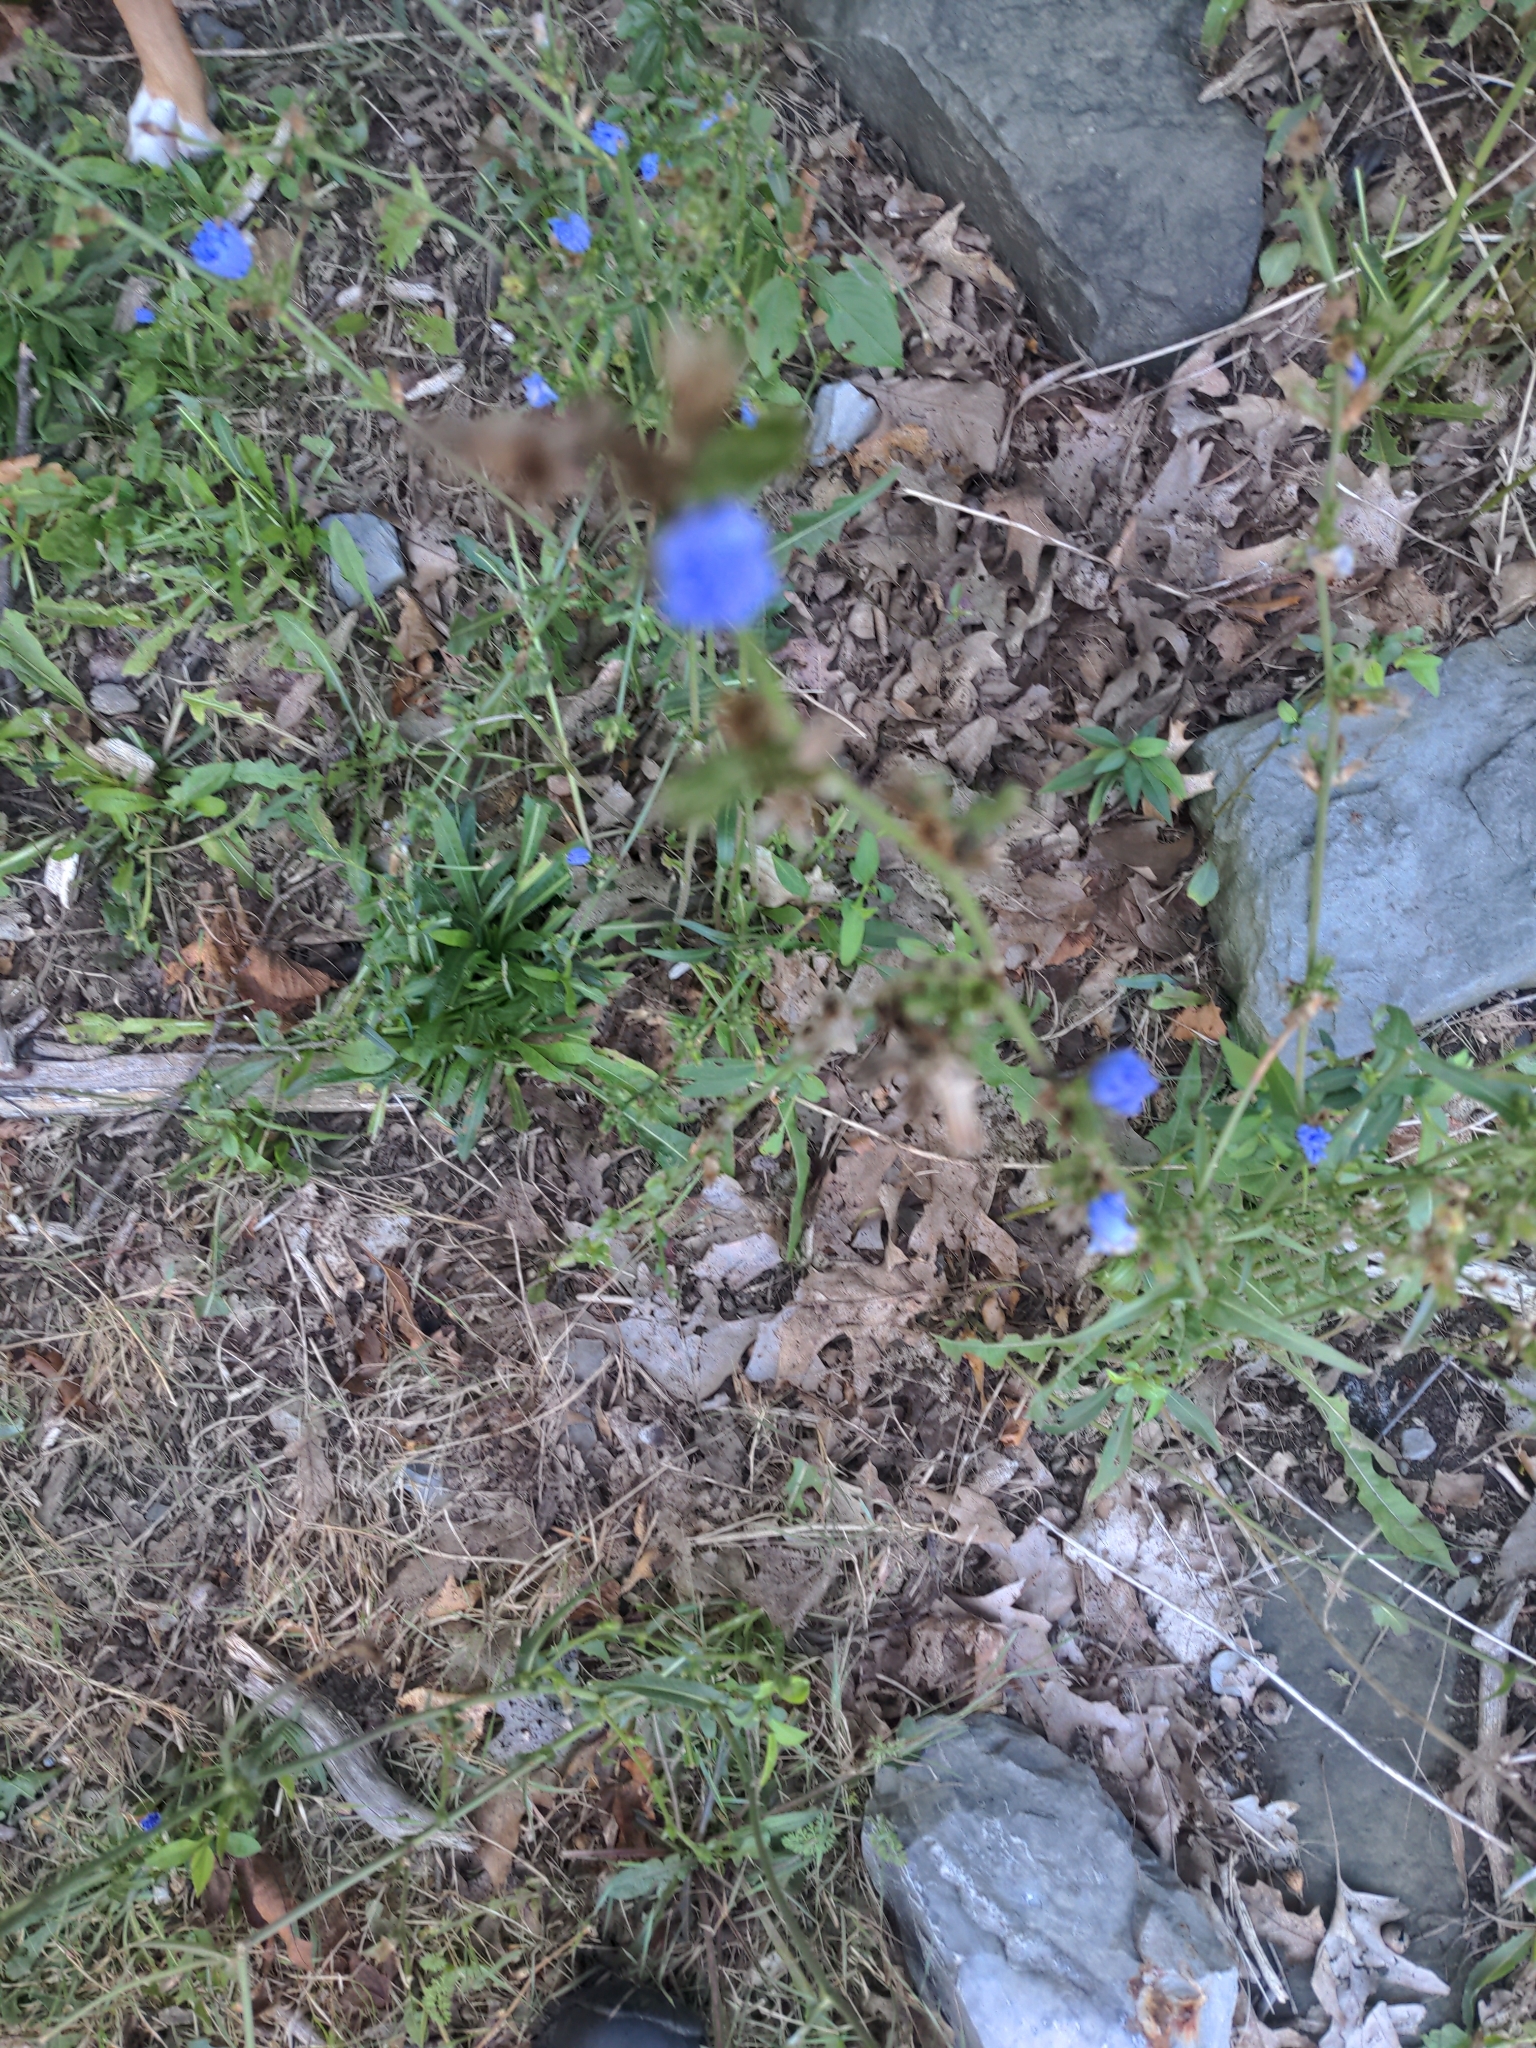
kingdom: Plantae
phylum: Tracheophyta
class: Magnoliopsida
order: Asterales
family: Asteraceae
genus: Cichorium
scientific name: Cichorium intybus
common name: Chicory
